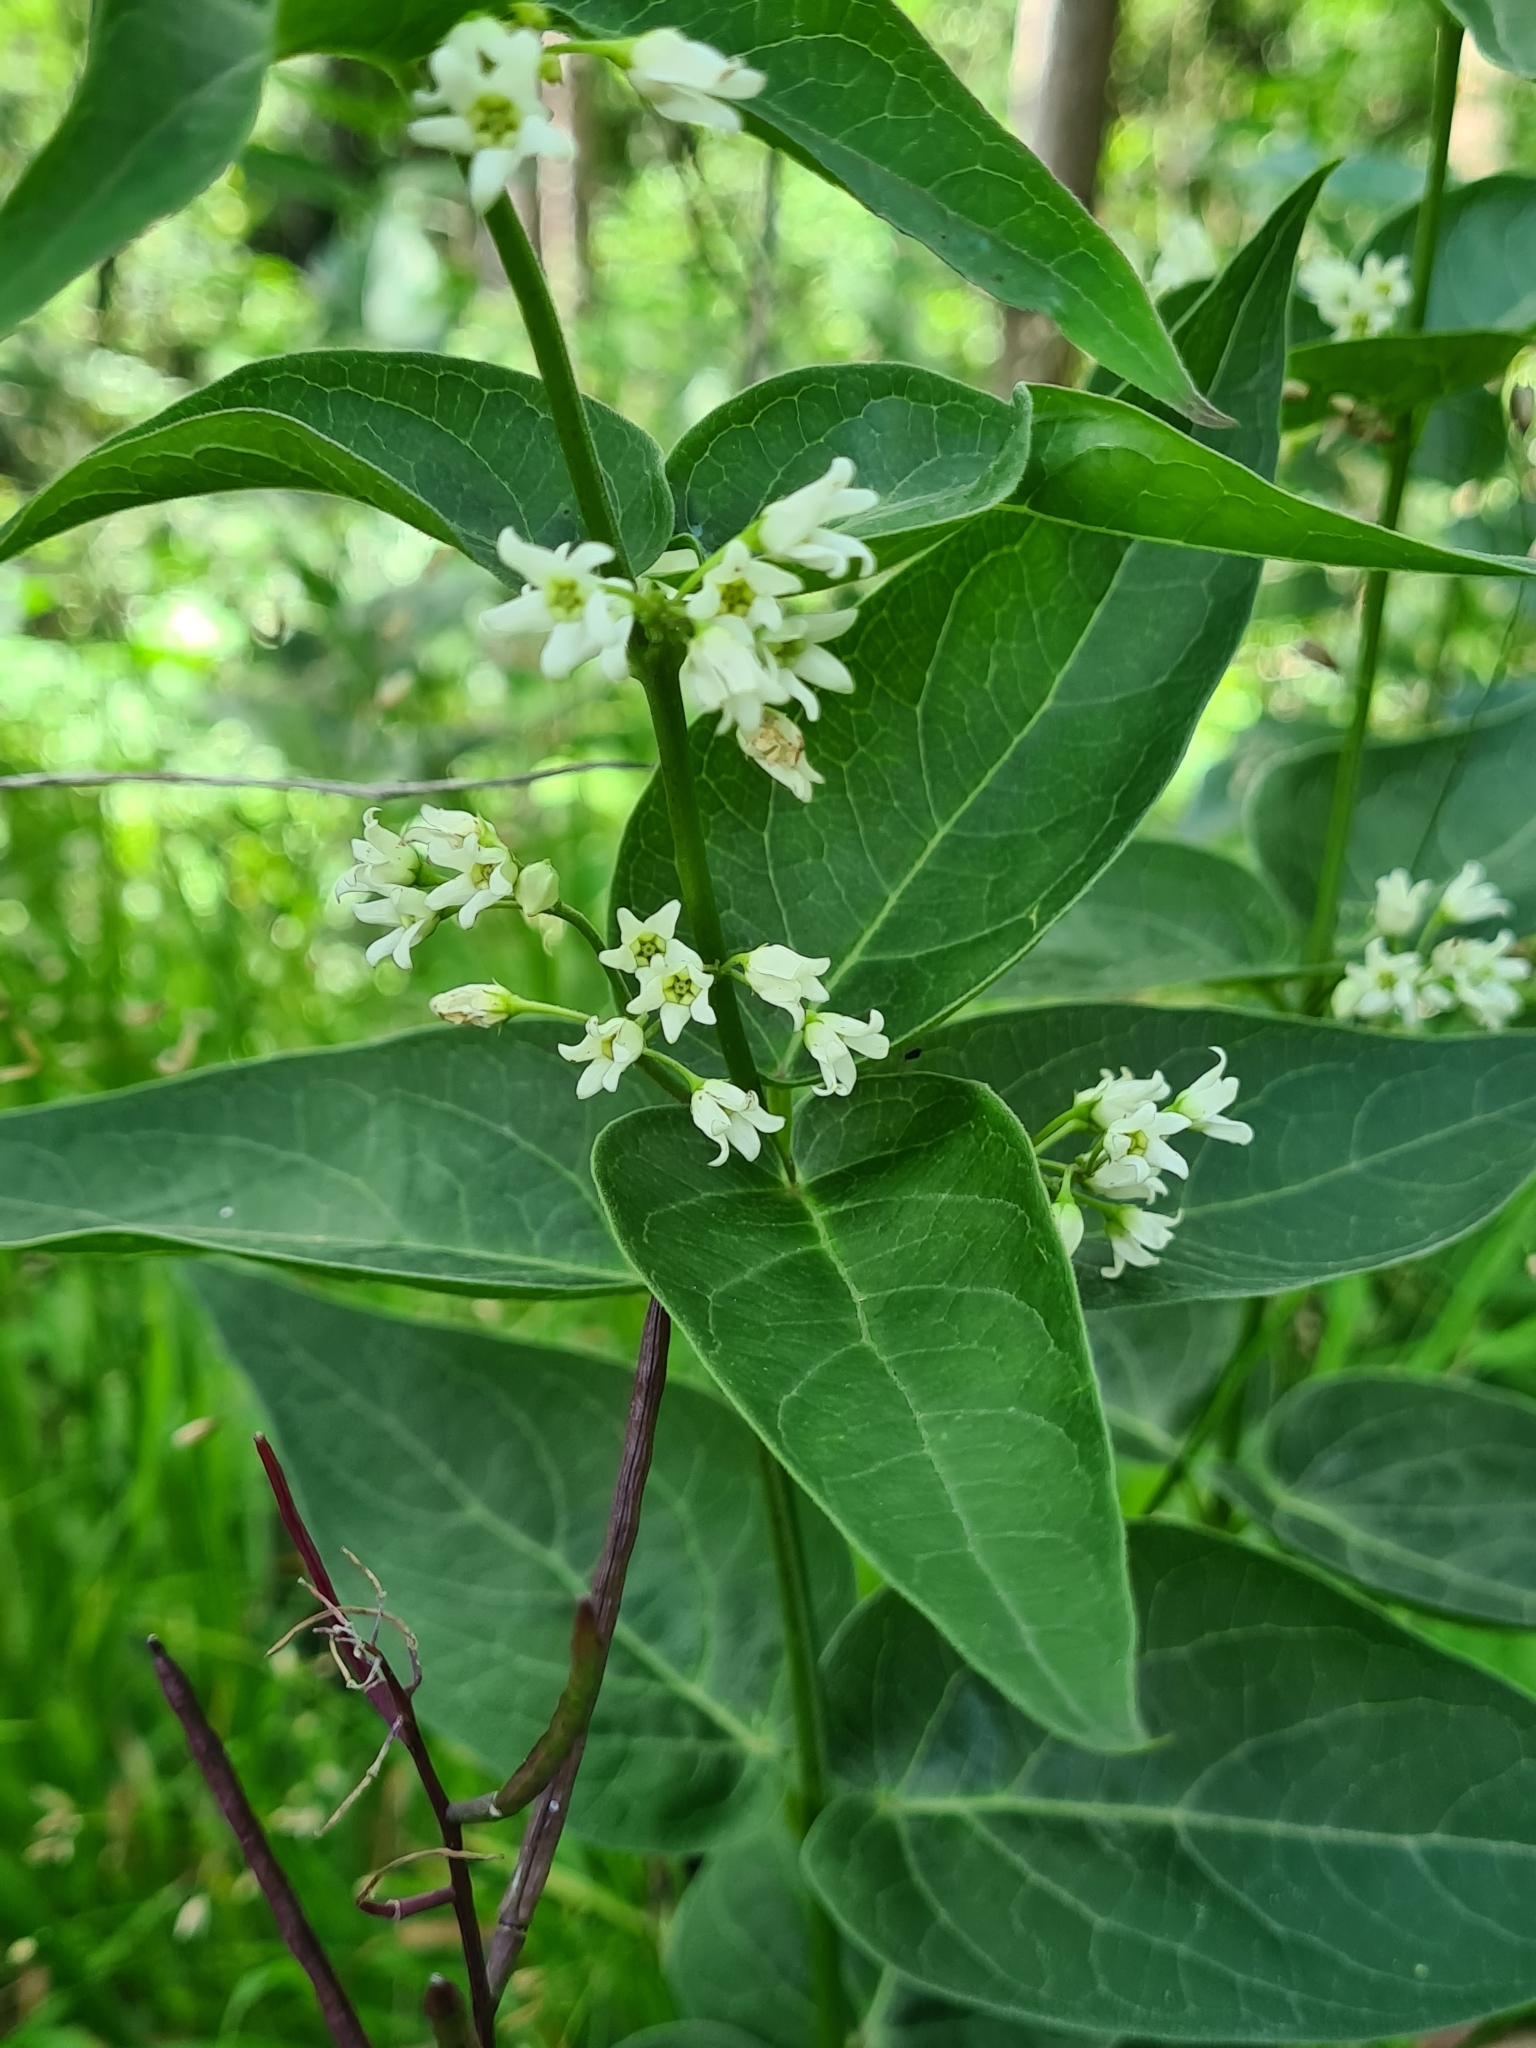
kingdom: Plantae
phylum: Tracheophyta
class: Magnoliopsida
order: Gentianales
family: Apocynaceae
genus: Vincetoxicum
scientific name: Vincetoxicum hirundinaria
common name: White swallowwort
